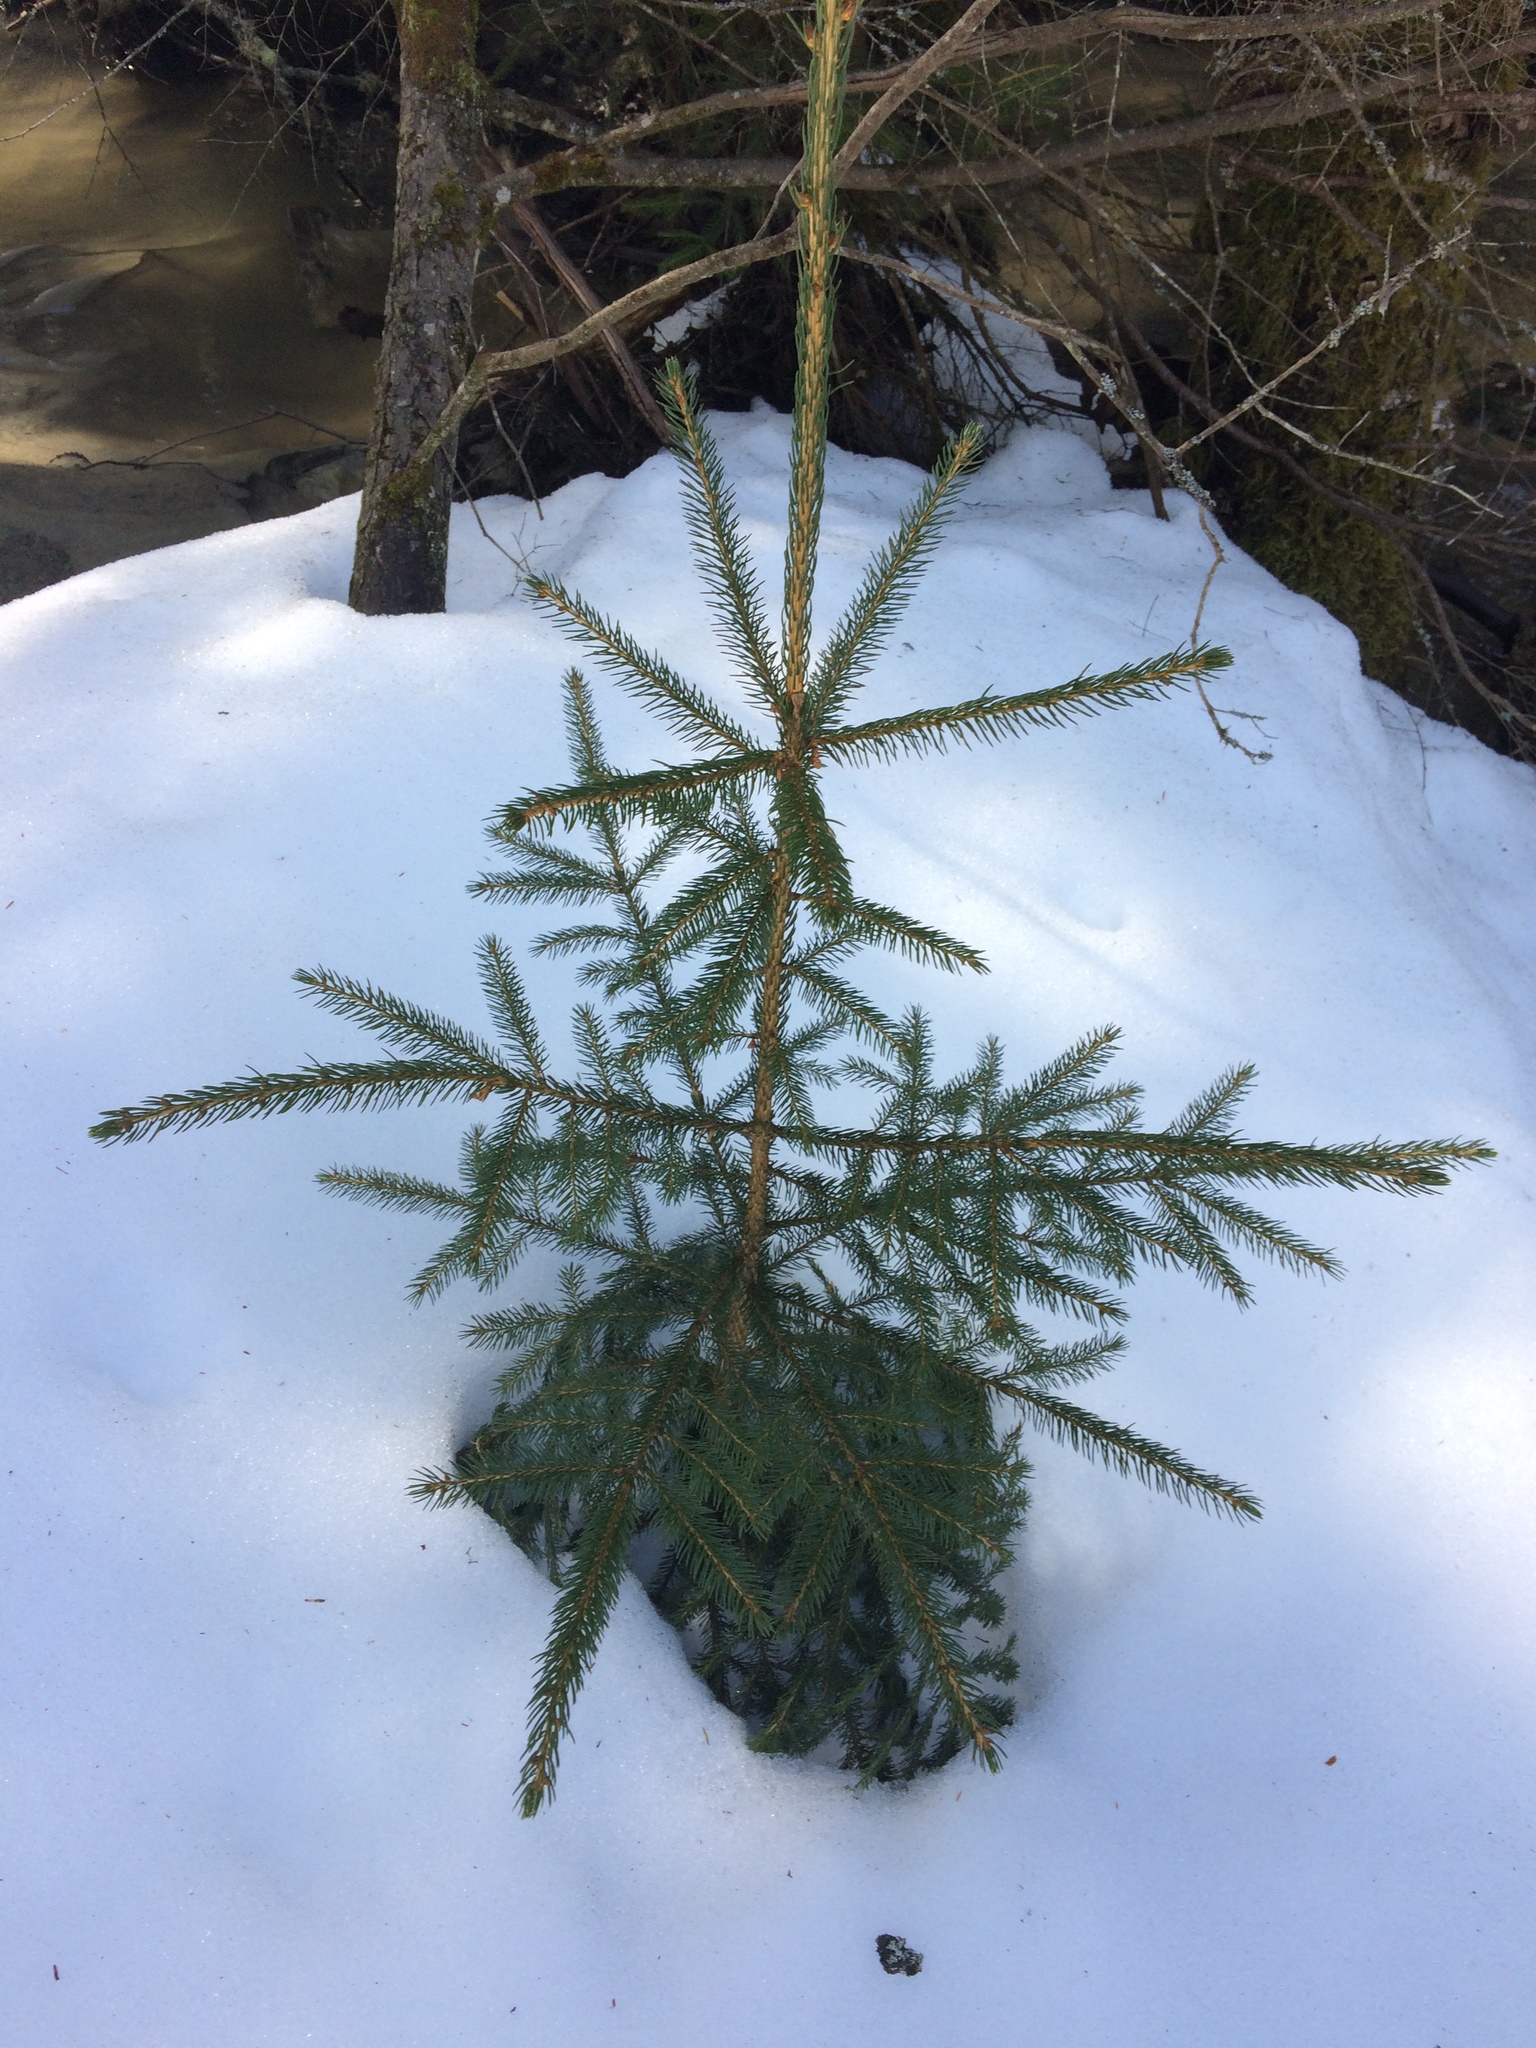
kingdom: Plantae
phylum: Tracheophyta
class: Pinopsida
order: Pinales
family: Pinaceae
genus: Picea
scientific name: Picea rubens
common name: Red spruce
